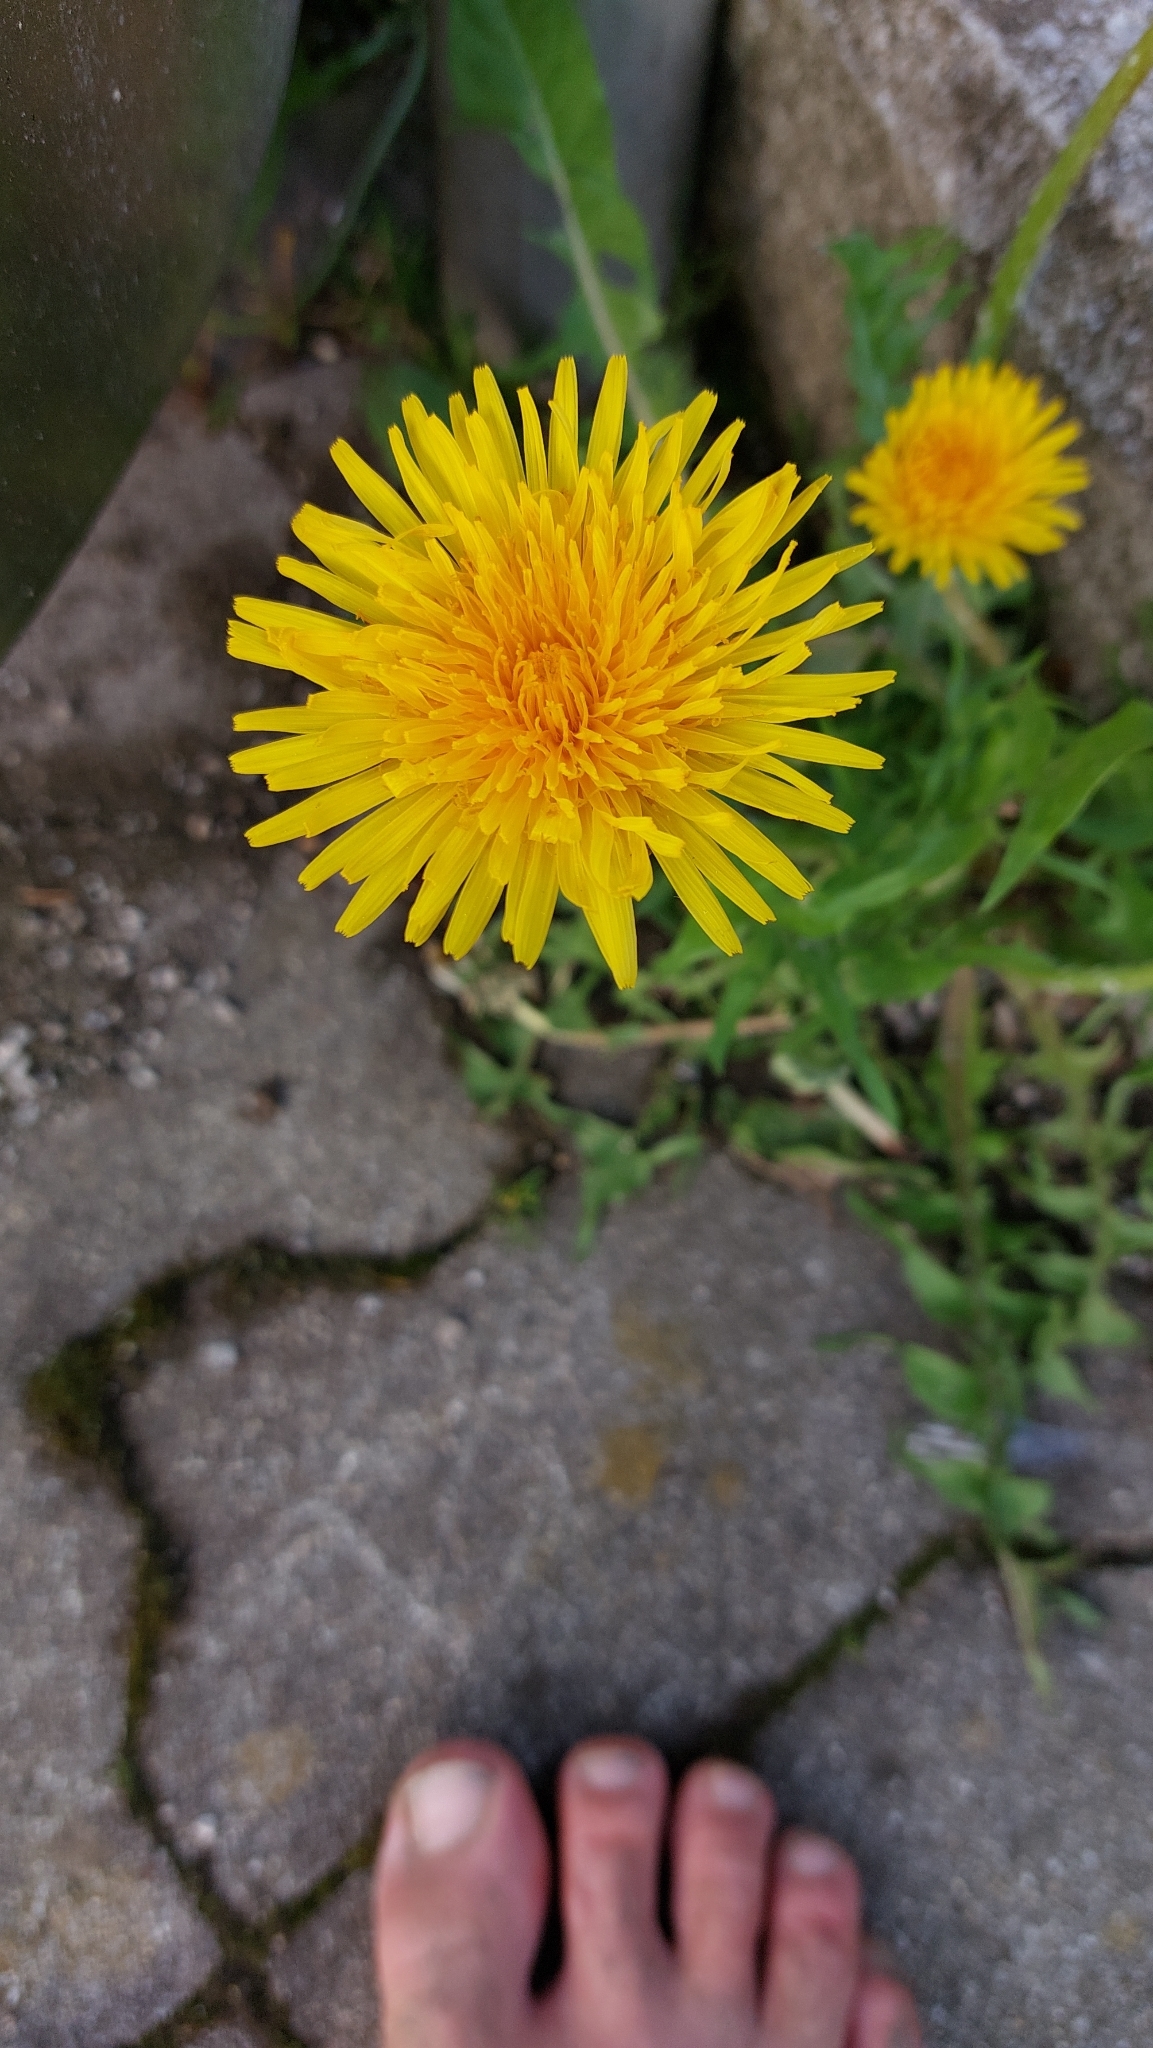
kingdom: Plantae
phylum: Tracheophyta
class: Magnoliopsida
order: Asterales
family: Asteraceae
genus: Taraxacum
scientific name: Taraxacum
